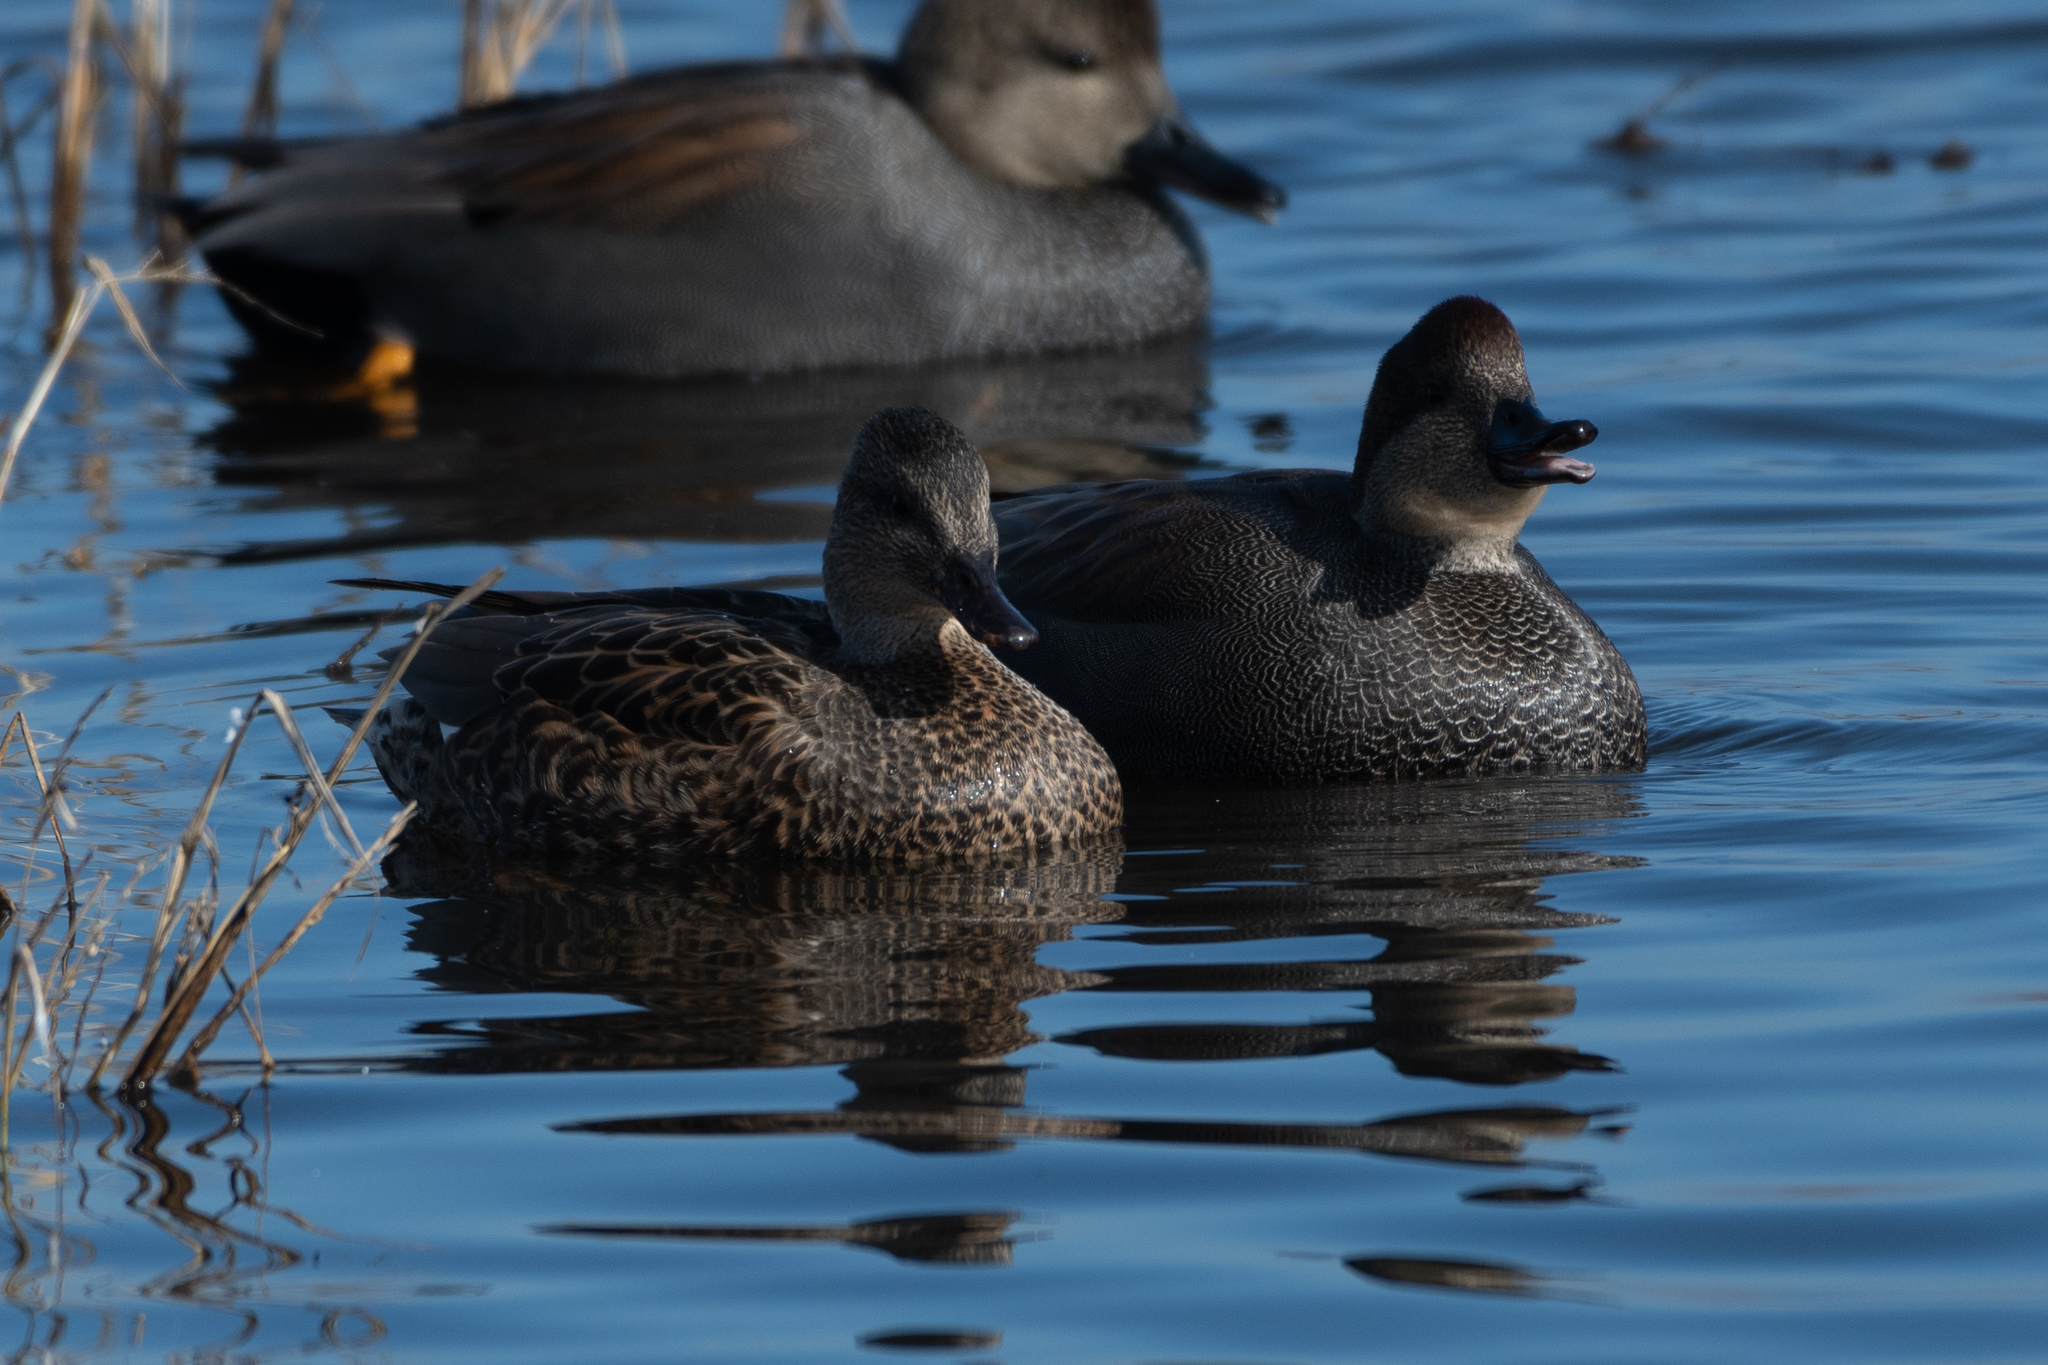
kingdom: Animalia
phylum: Chordata
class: Aves
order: Anseriformes
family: Anatidae
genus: Mareca
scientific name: Mareca strepera
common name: Gadwall
